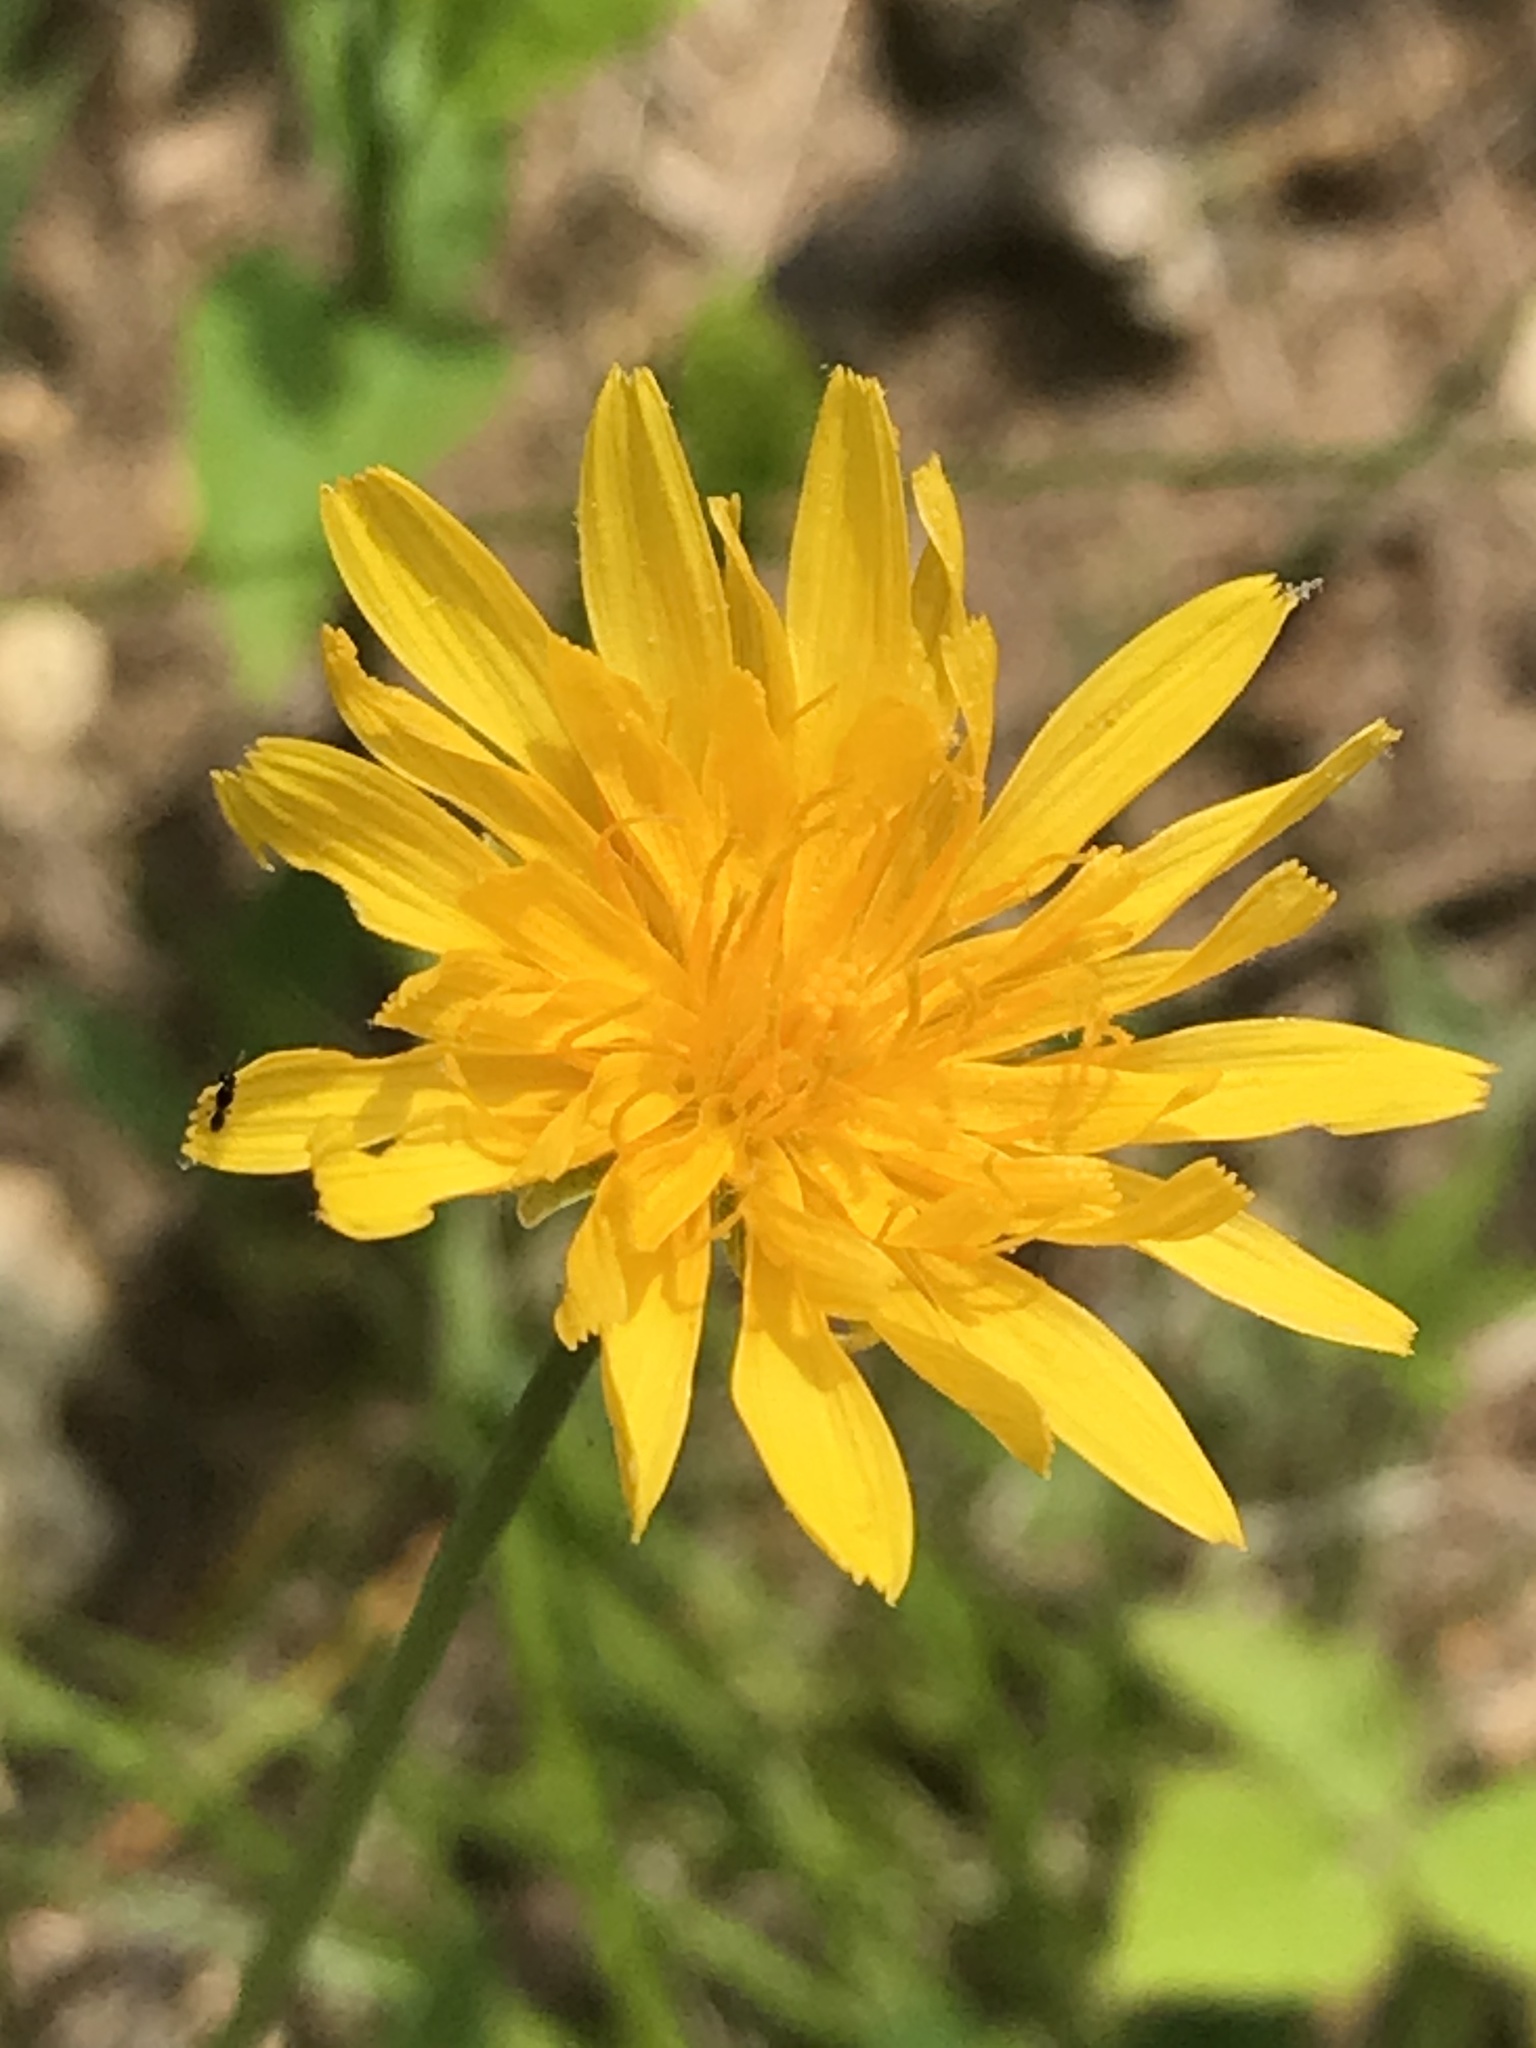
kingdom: Plantae
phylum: Tracheophyta
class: Magnoliopsida
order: Asterales
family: Asteraceae
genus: Krigia
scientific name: Krigia dandelion
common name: Colonial dwarf-dandelion
